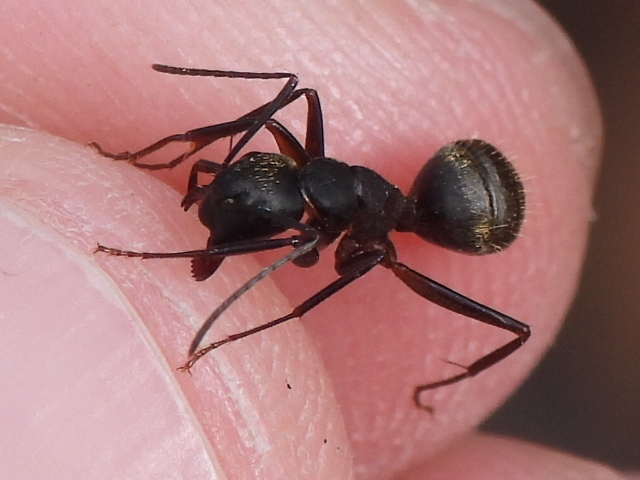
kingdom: Animalia
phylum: Arthropoda
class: Insecta
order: Hymenoptera
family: Formicidae
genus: Camponotus
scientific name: Camponotus pennsylvanicus
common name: Black carpenter ant
